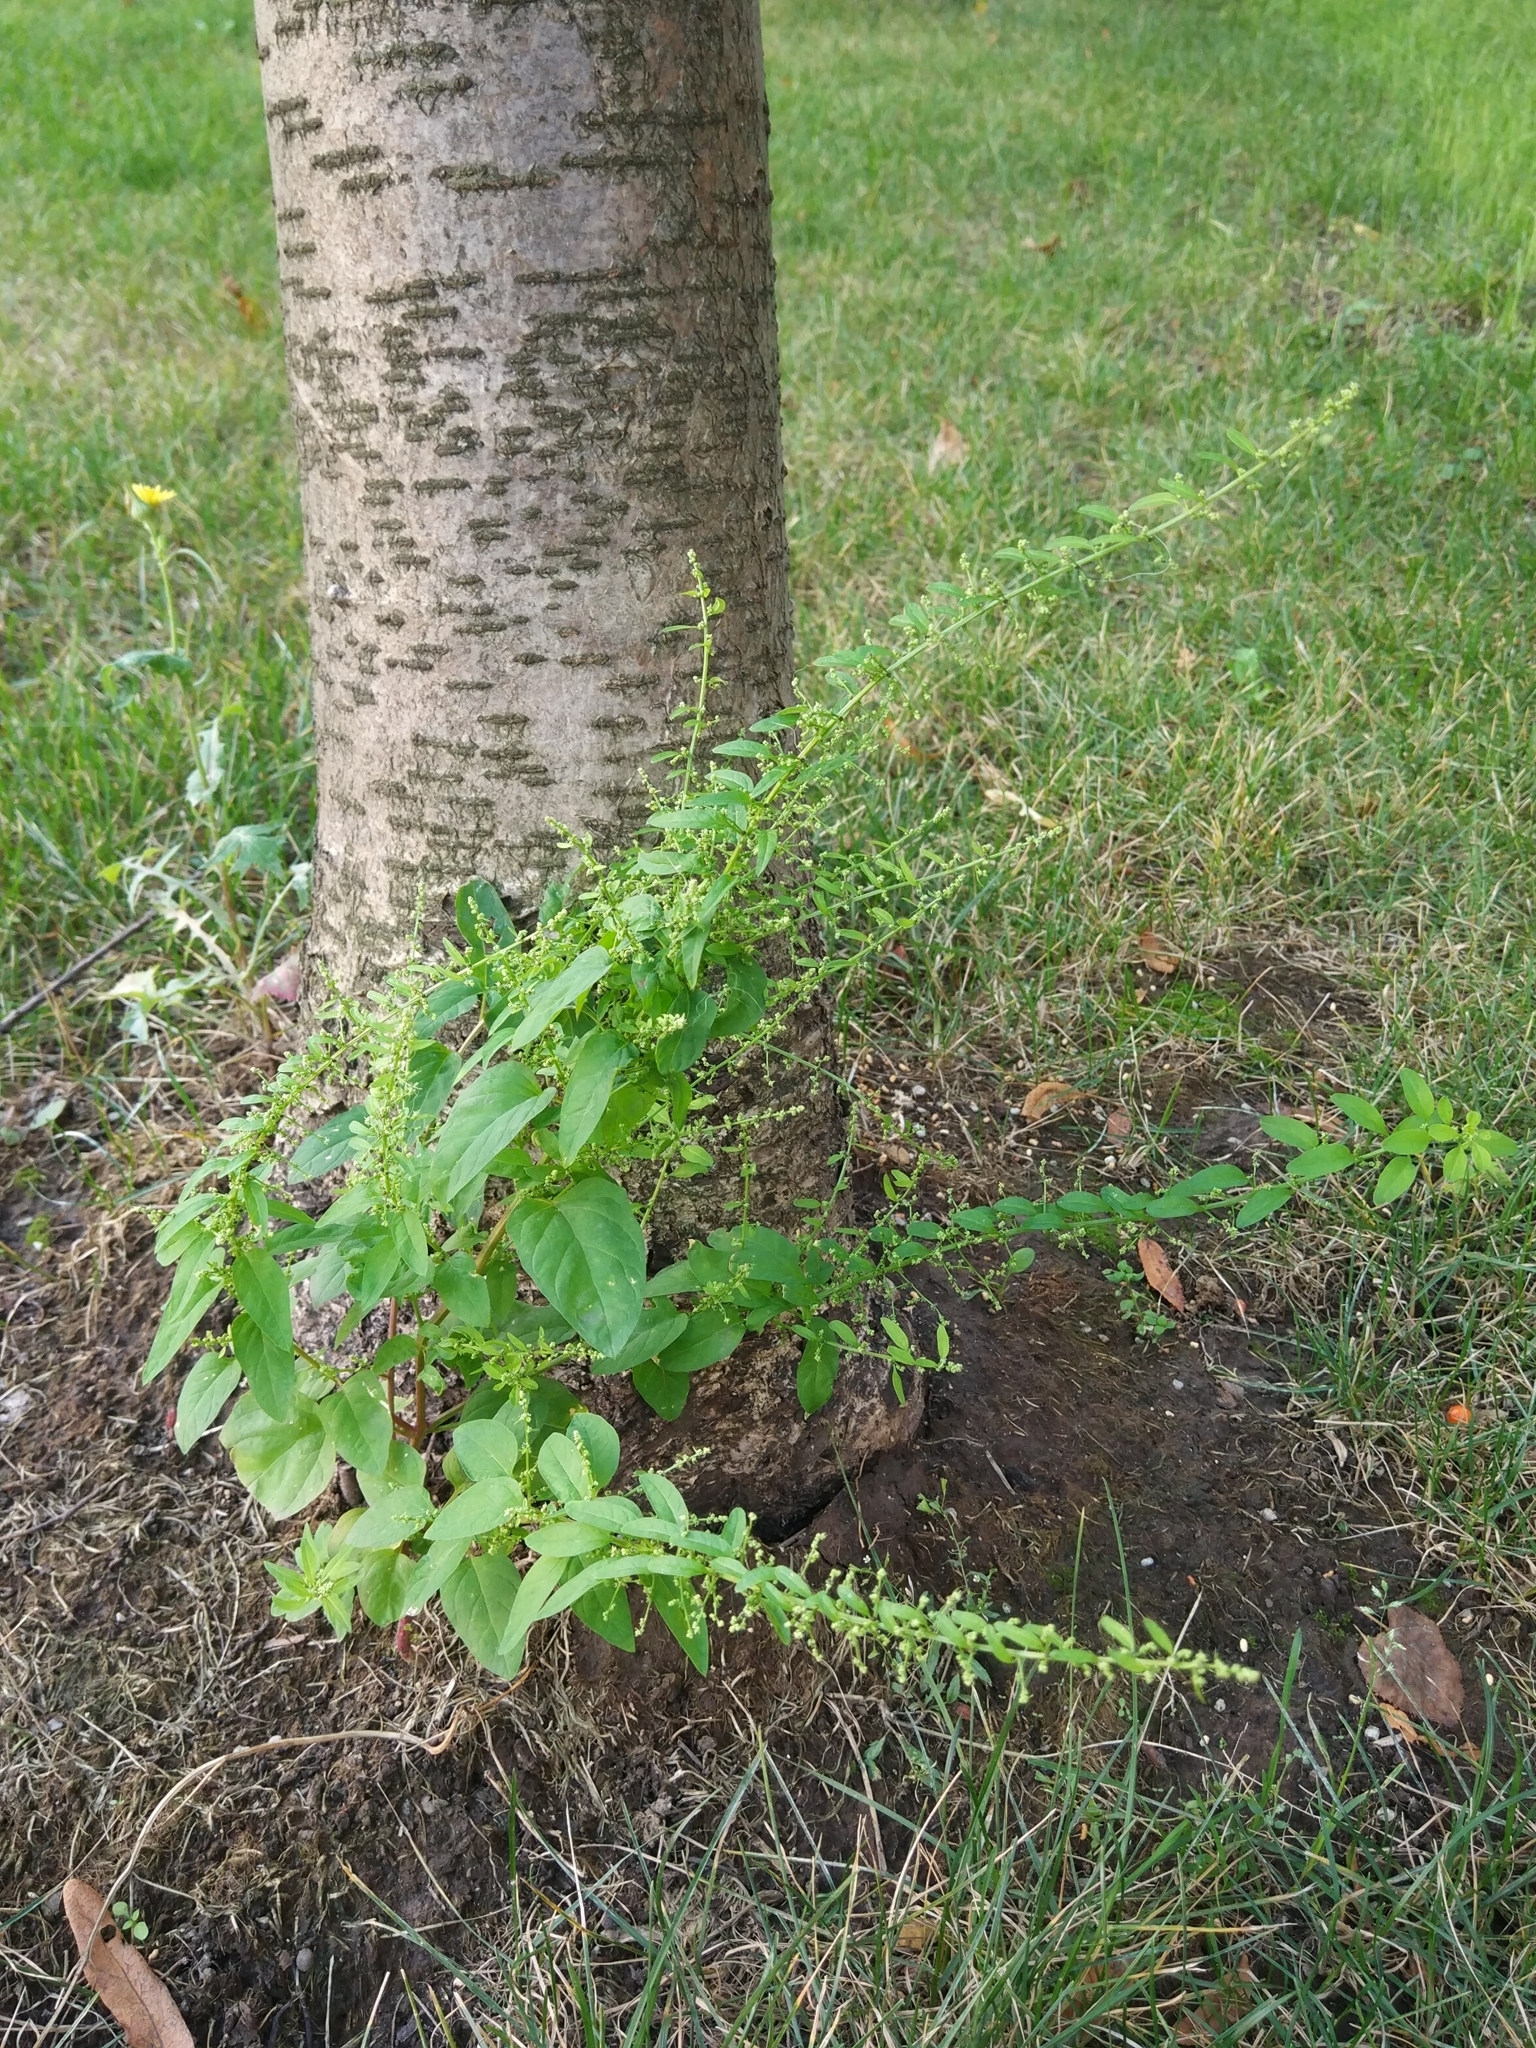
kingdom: Plantae
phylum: Tracheophyta
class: Magnoliopsida
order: Caryophyllales
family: Amaranthaceae
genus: Lipandra
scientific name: Lipandra polysperma
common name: Many-seed goosefoot
